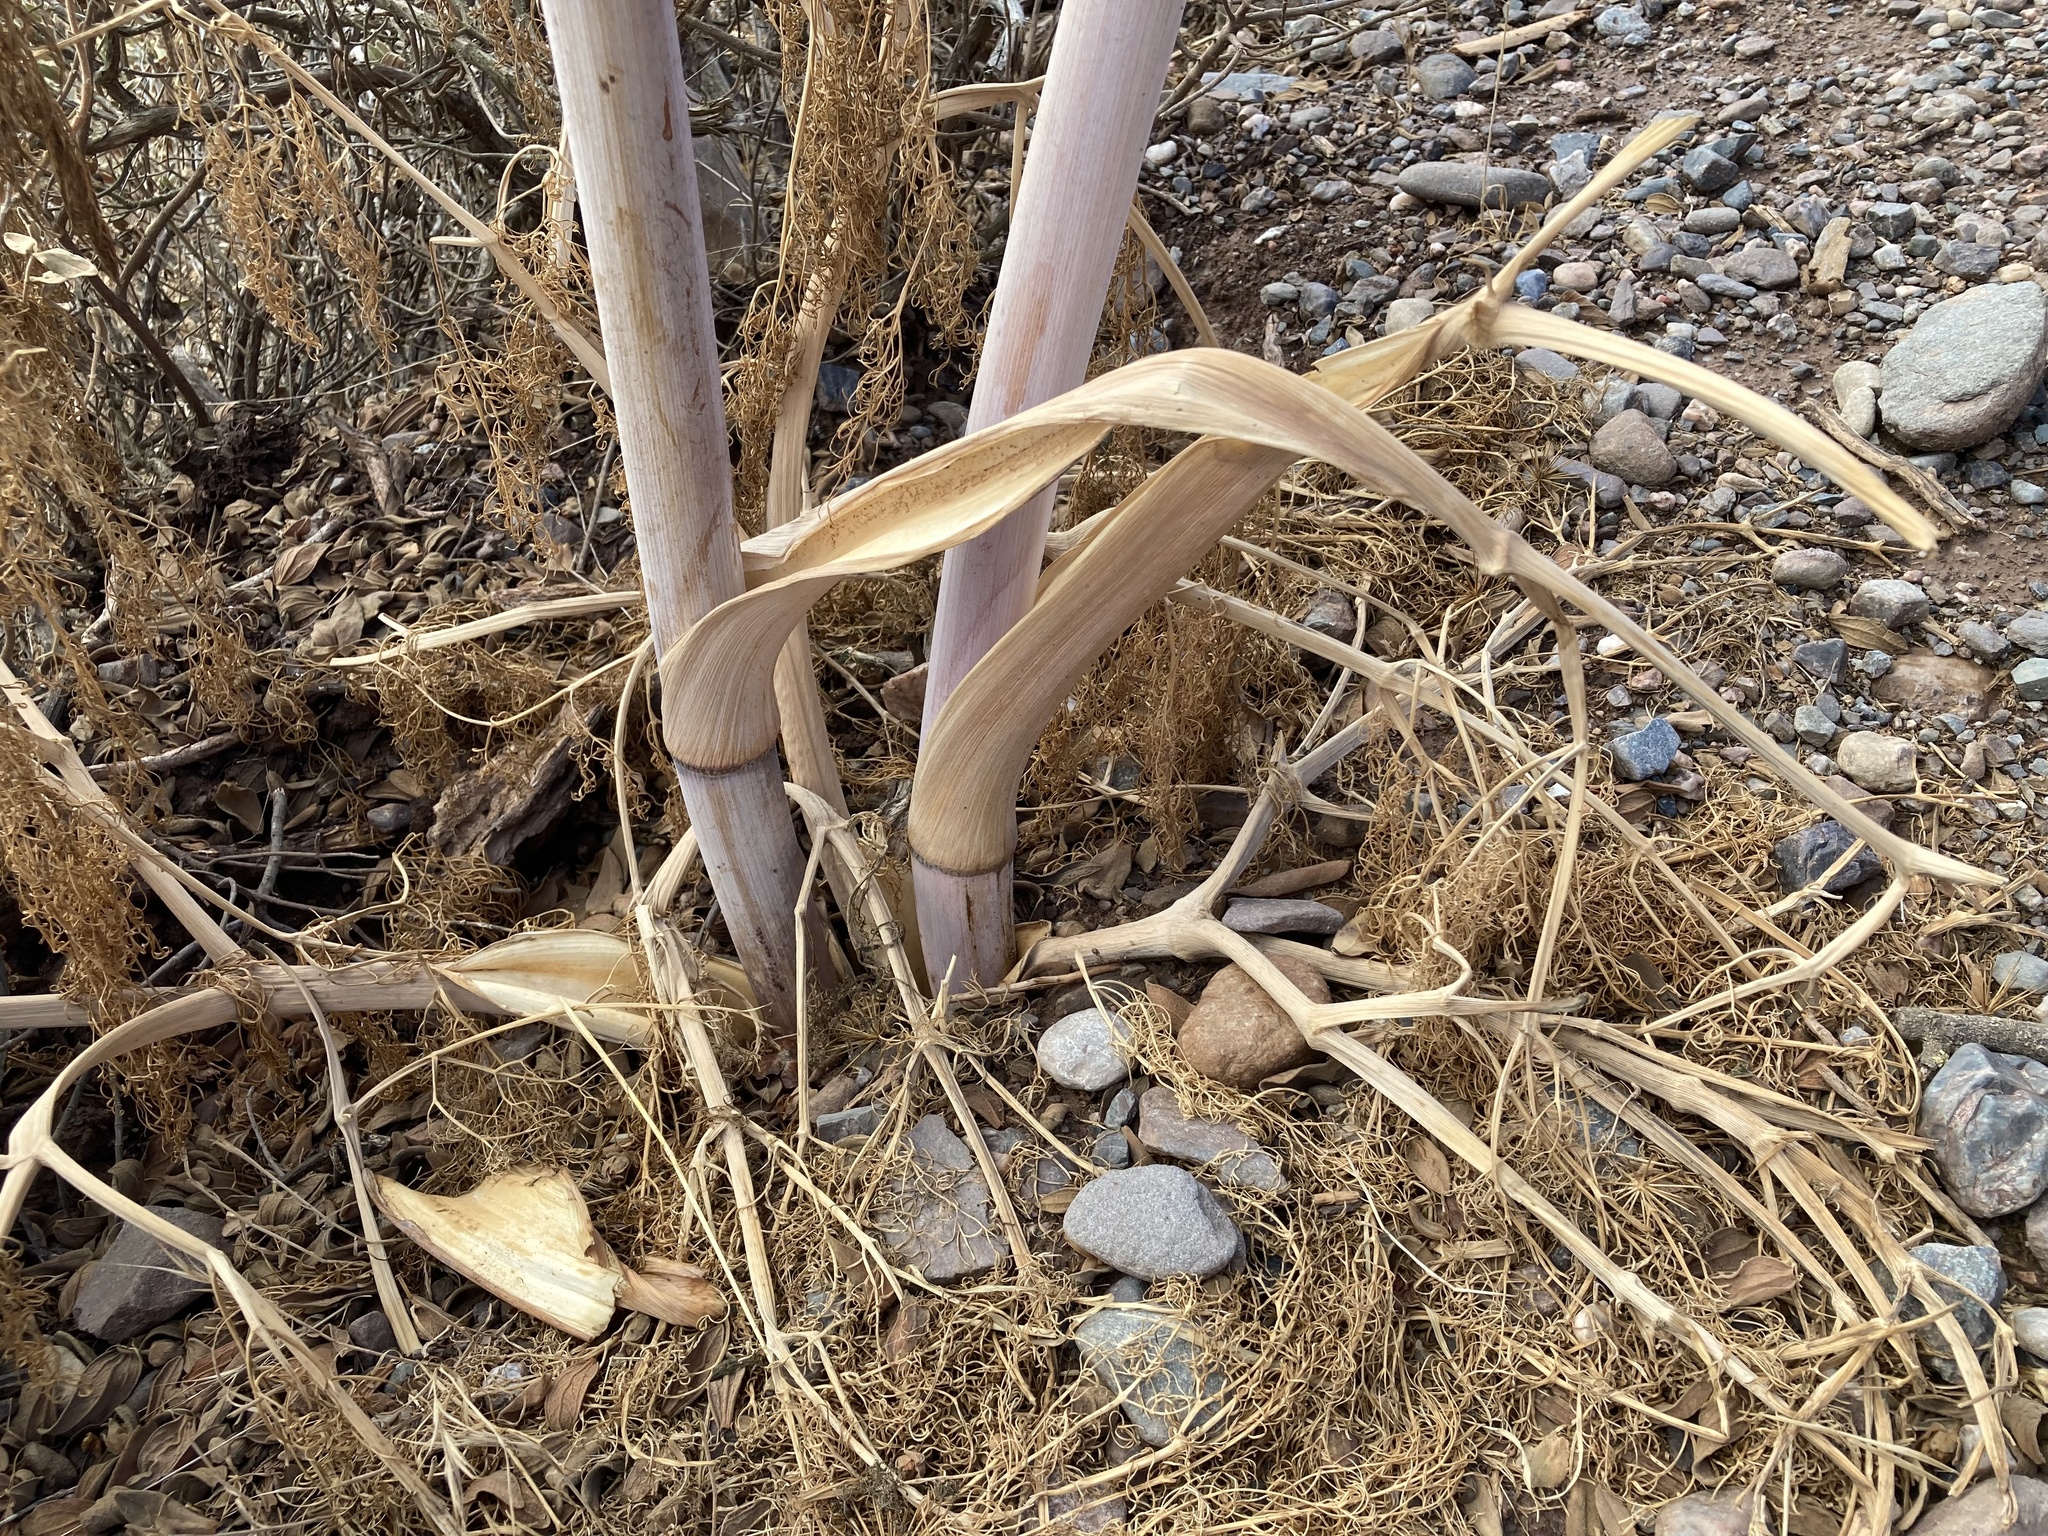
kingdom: Plantae
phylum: Tracheophyta
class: Magnoliopsida
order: Apiales
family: Apiaceae
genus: Ferula
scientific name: Ferula communis
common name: Giant fennel
